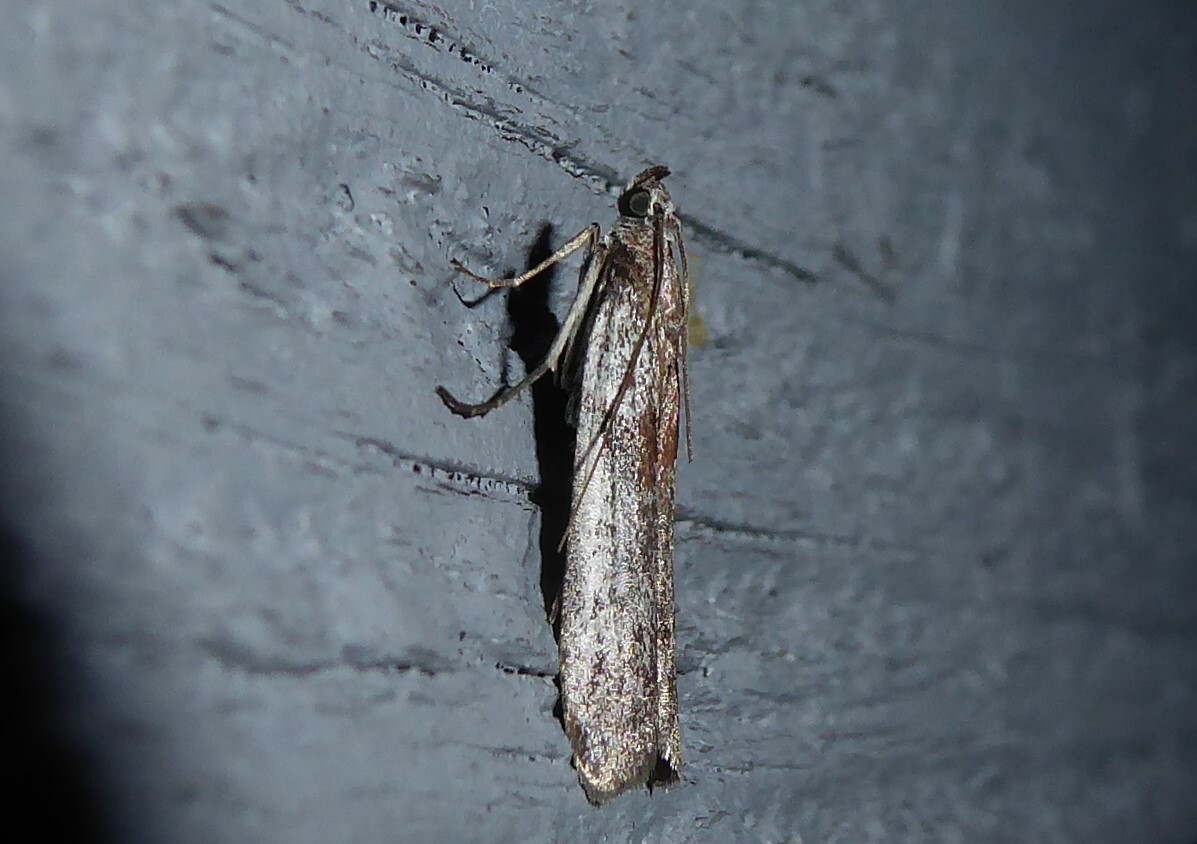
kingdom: Animalia
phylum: Arthropoda
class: Insecta
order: Lepidoptera
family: Pyralidae
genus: Patagoniodes
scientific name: Patagoniodes farinaria
